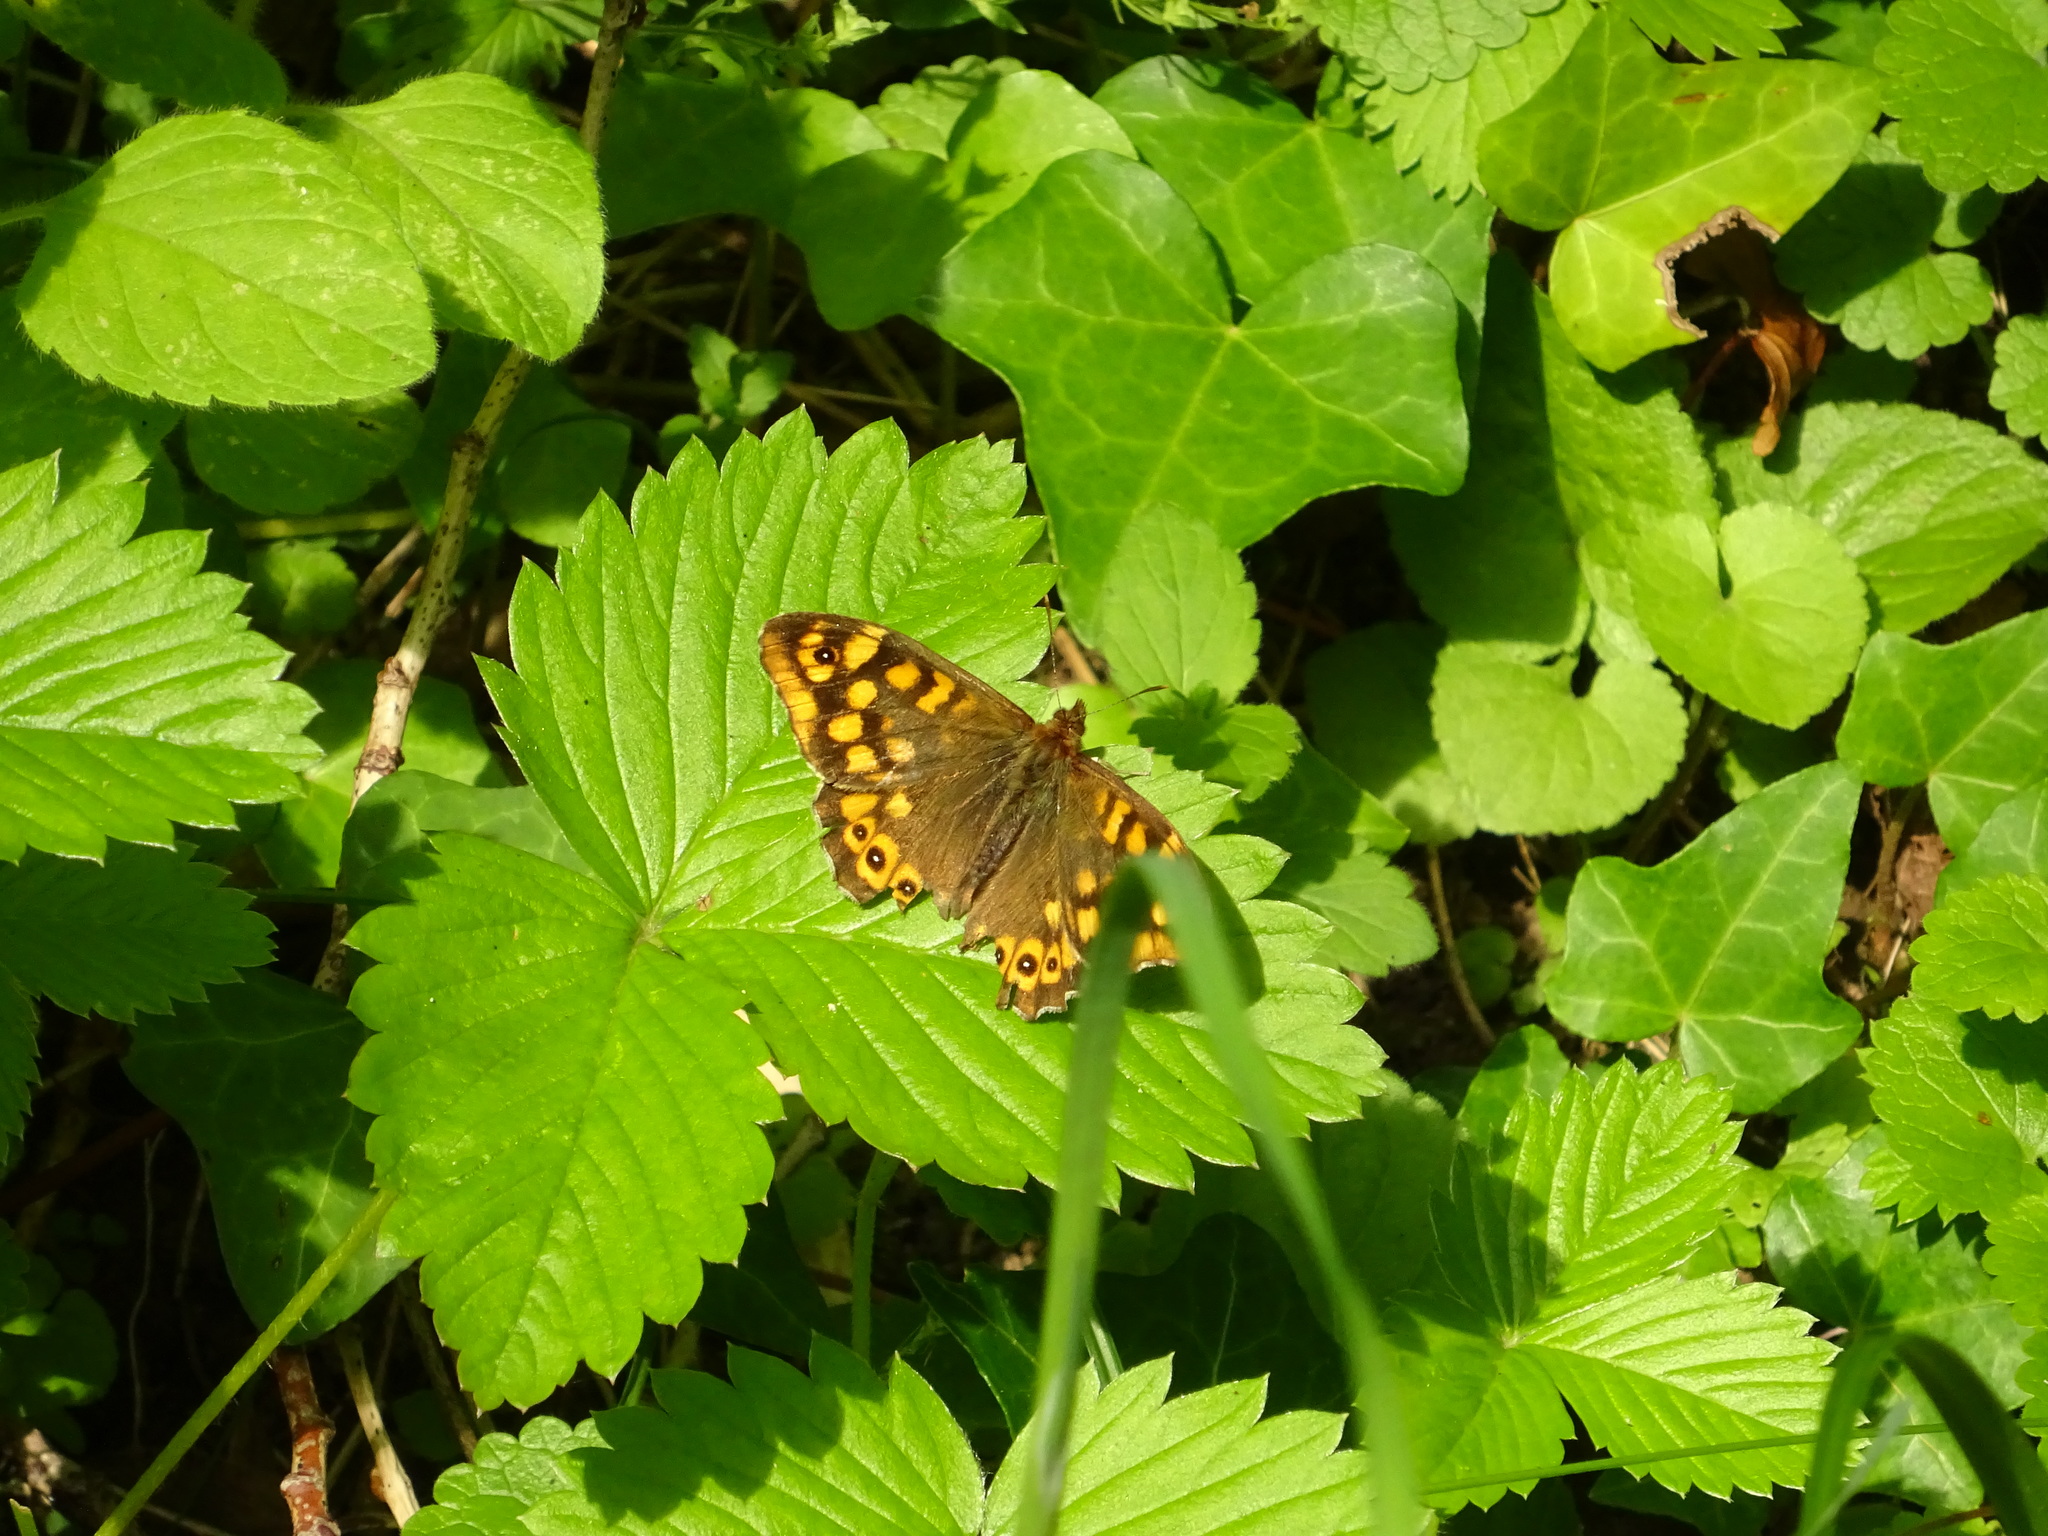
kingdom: Animalia
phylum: Arthropoda
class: Insecta
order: Lepidoptera
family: Nymphalidae
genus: Pararge
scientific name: Pararge aegeria
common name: Speckled wood
